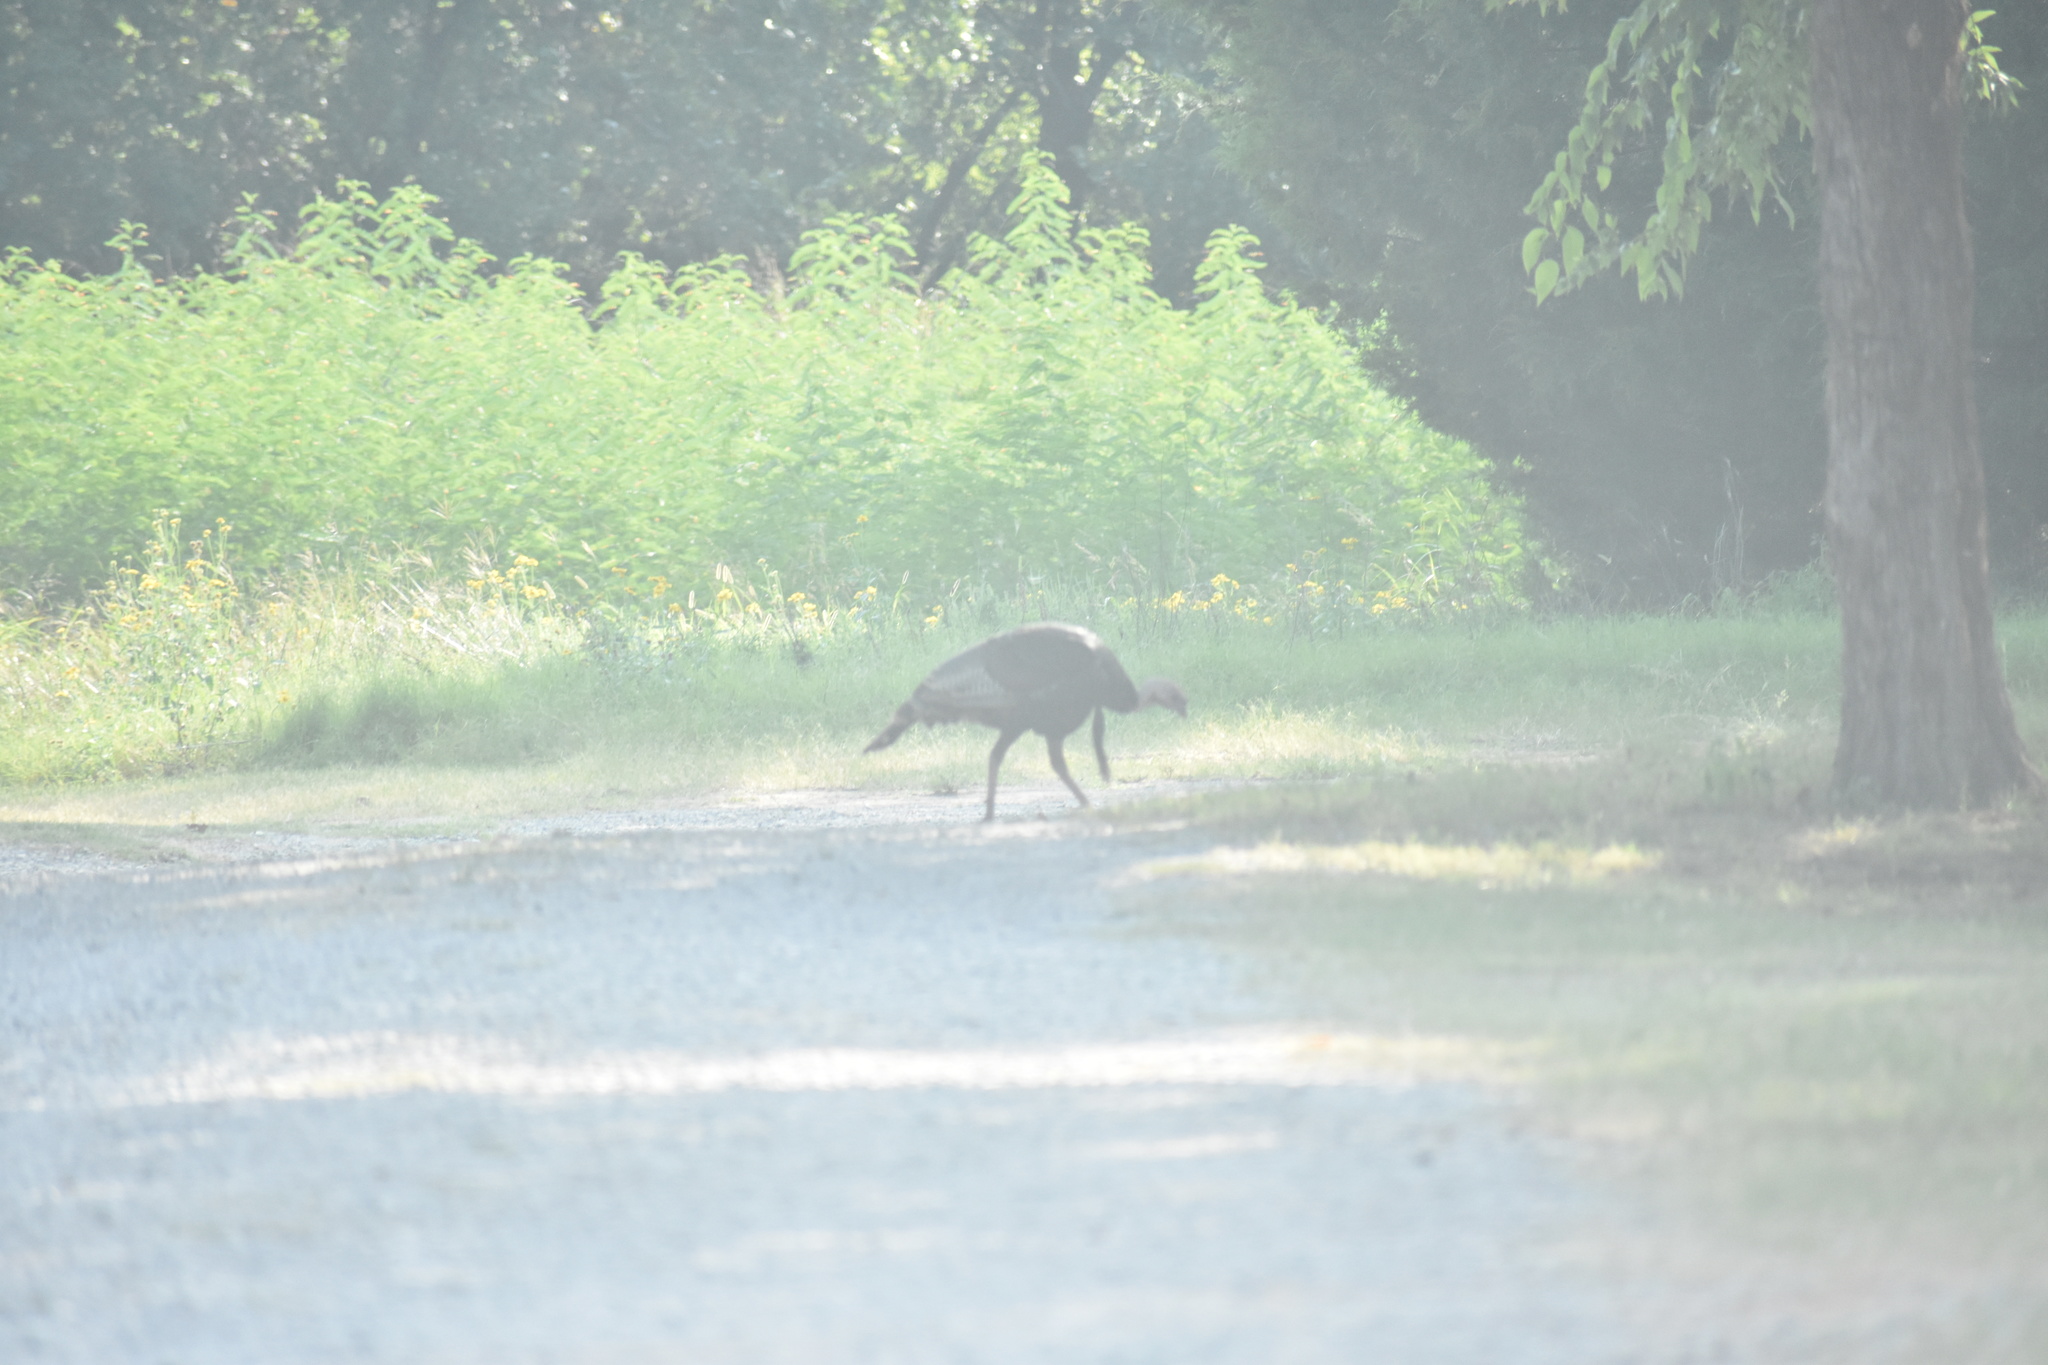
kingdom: Animalia
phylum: Chordata
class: Aves
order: Galliformes
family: Phasianidae
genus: Meleagris
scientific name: Meleagris gallopavo
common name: Wild turkey
